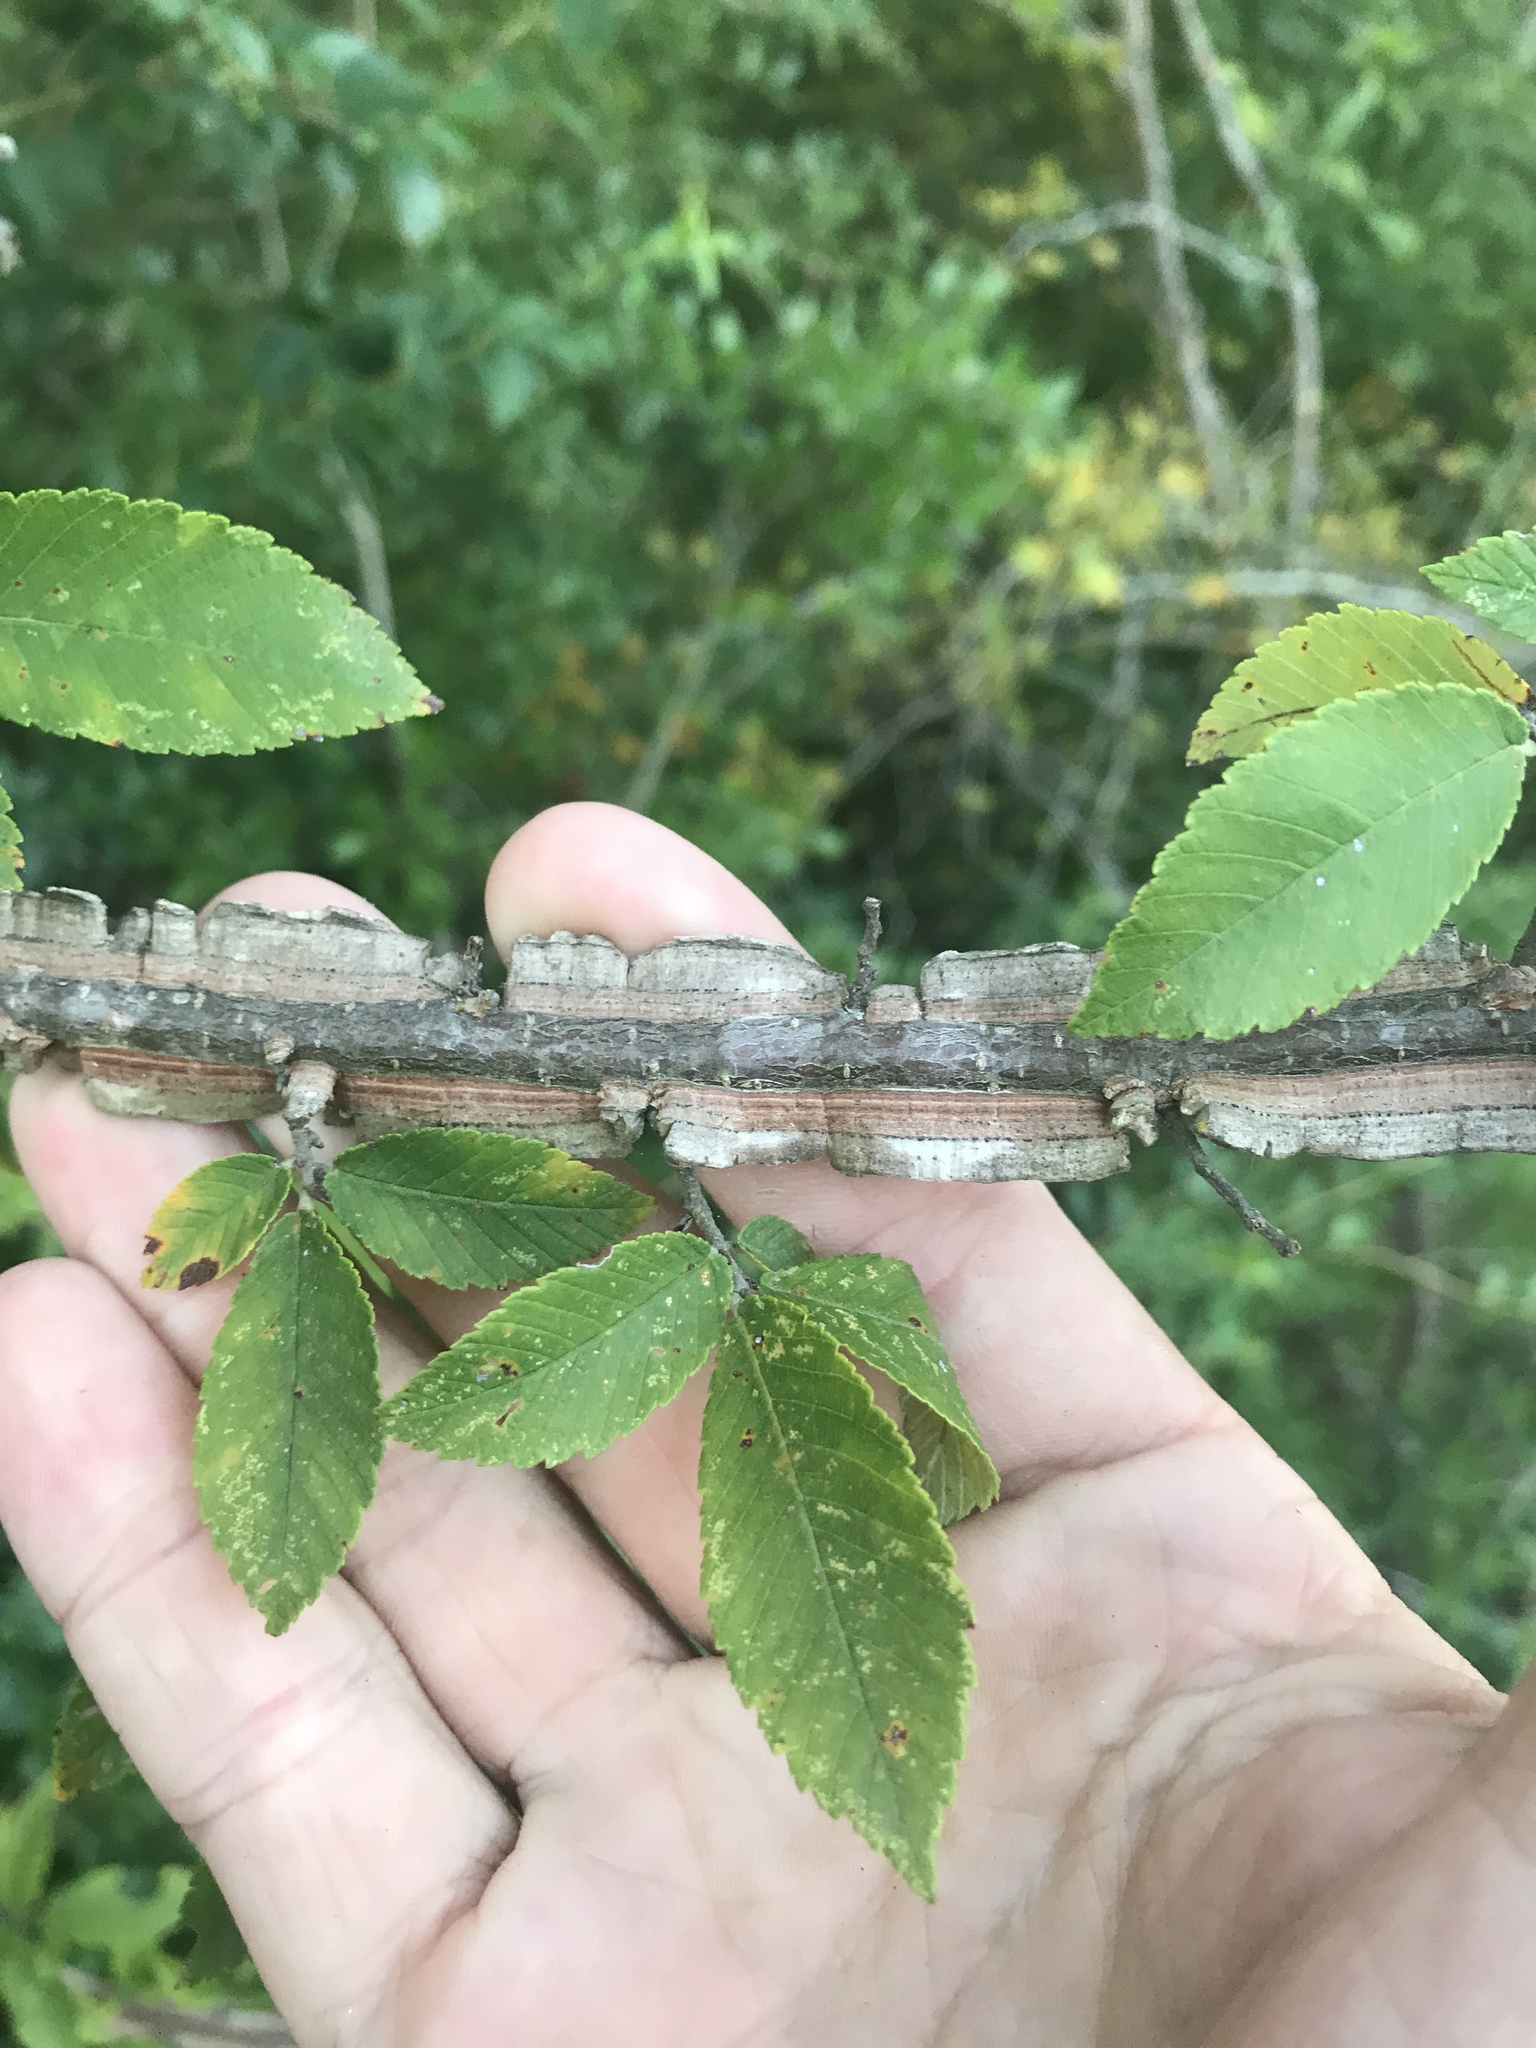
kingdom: Plantae
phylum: Tracheophyta
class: Magnoliopsida
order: Rosales
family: Ulmaceae
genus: Ulmus
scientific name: Ulmus alata
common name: Winged elm
